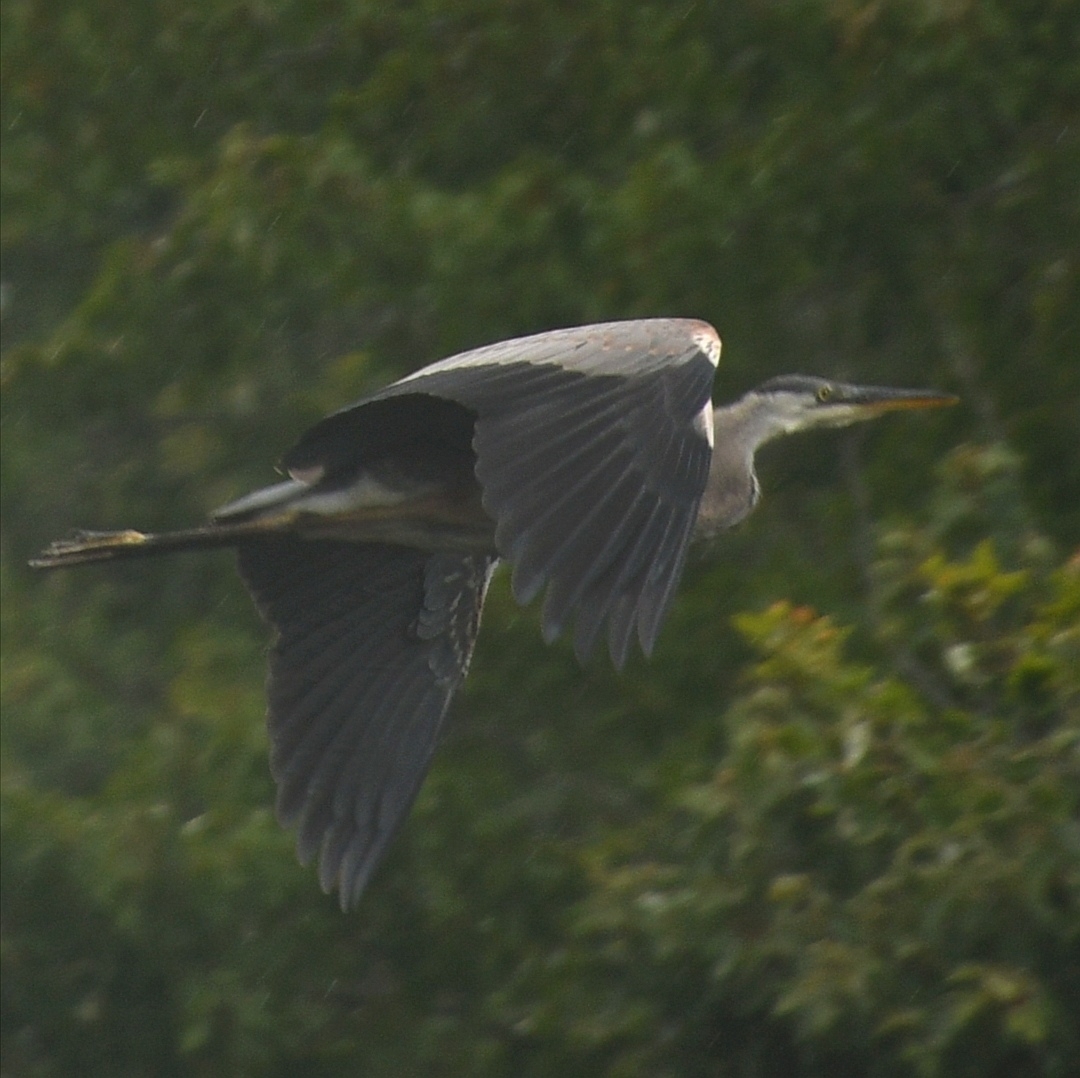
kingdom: Animalia
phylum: Chordata
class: Aves
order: Pelecaniformes
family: Ardeidae
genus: Ardea
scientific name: Ardea herodias
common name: Great blue heron
